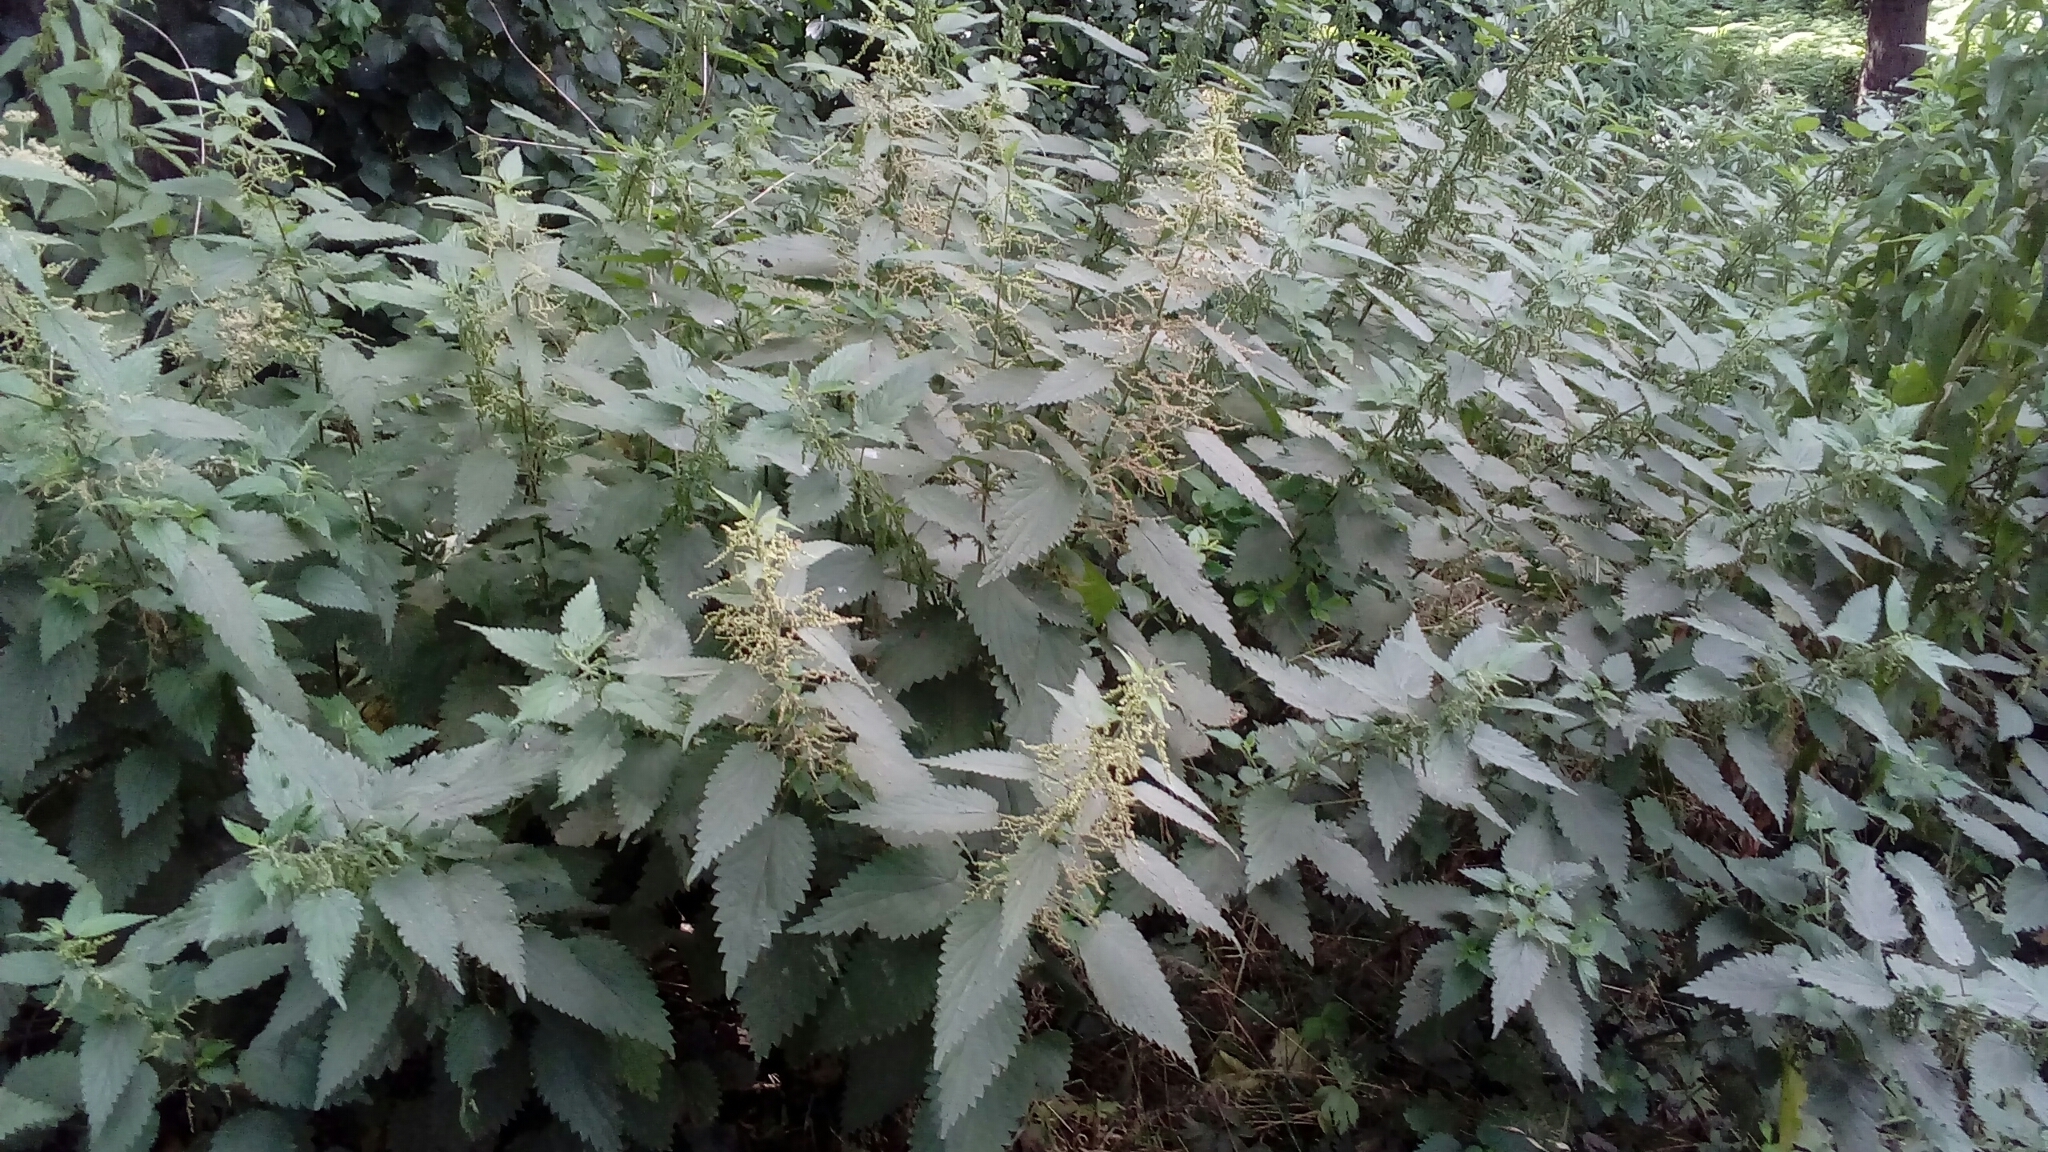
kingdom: Plantae
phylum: Tracheophyta
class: Magnoliopsida
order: Rosales
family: Urticaceae
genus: Urtica
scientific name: Urtica dioica
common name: Common nettle
